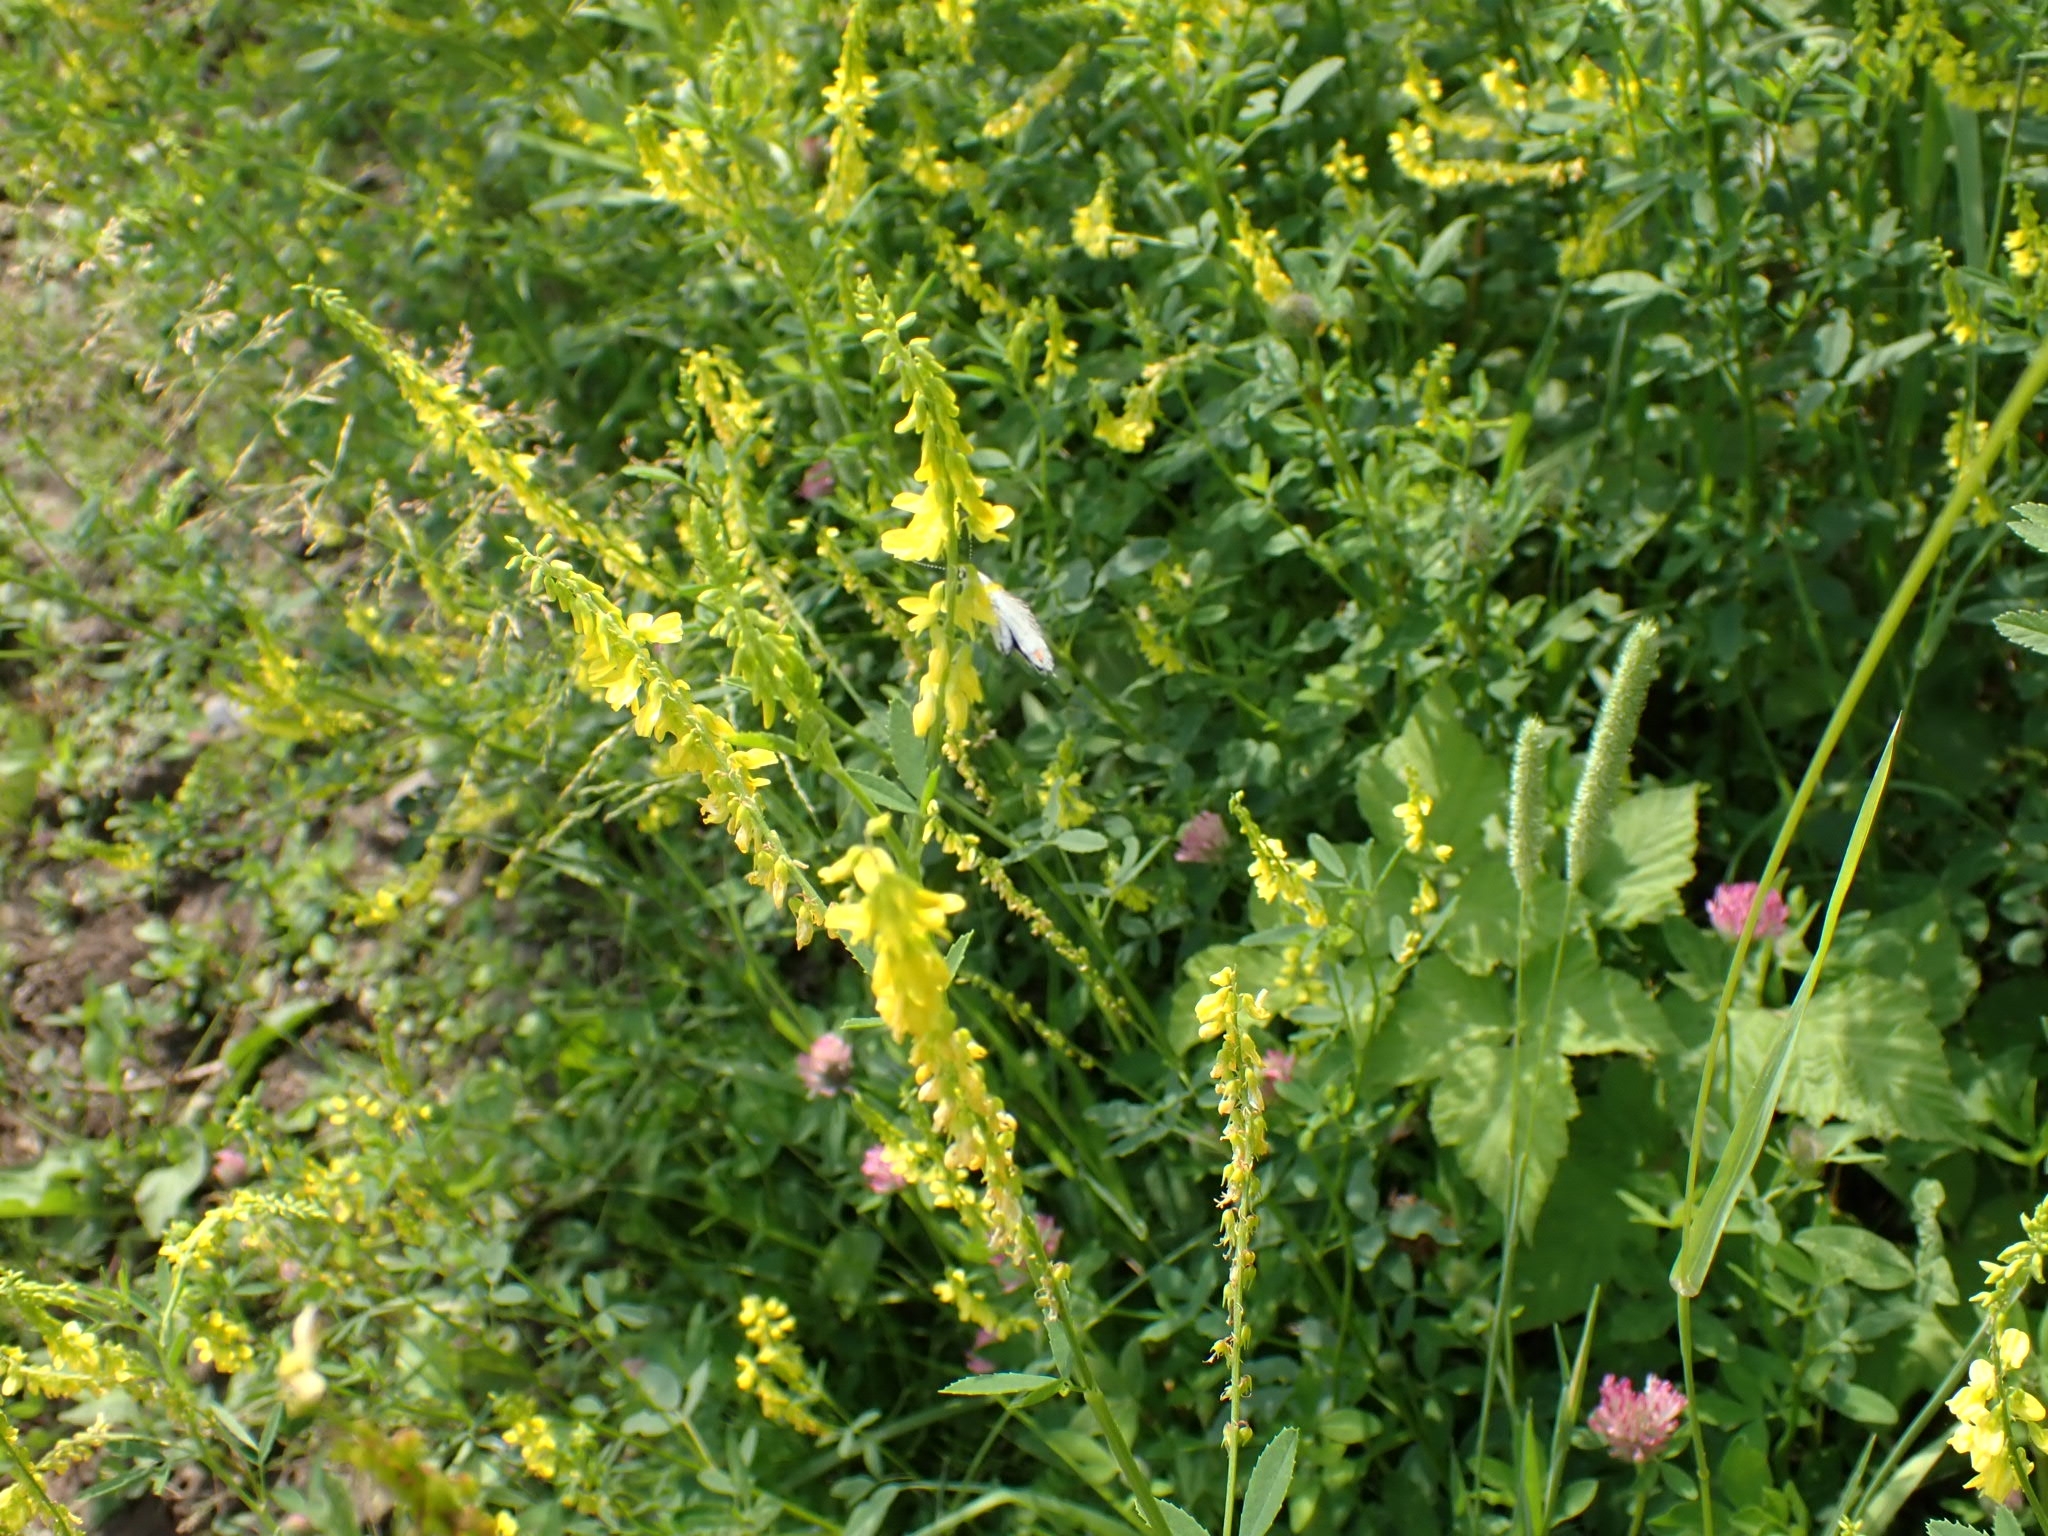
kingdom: Plantae
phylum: Tracheophyta
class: Magnoliopsida
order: Fabales
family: Fabaceae
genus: Melilotus
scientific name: Melilotus officinalis
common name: Sweetclover
